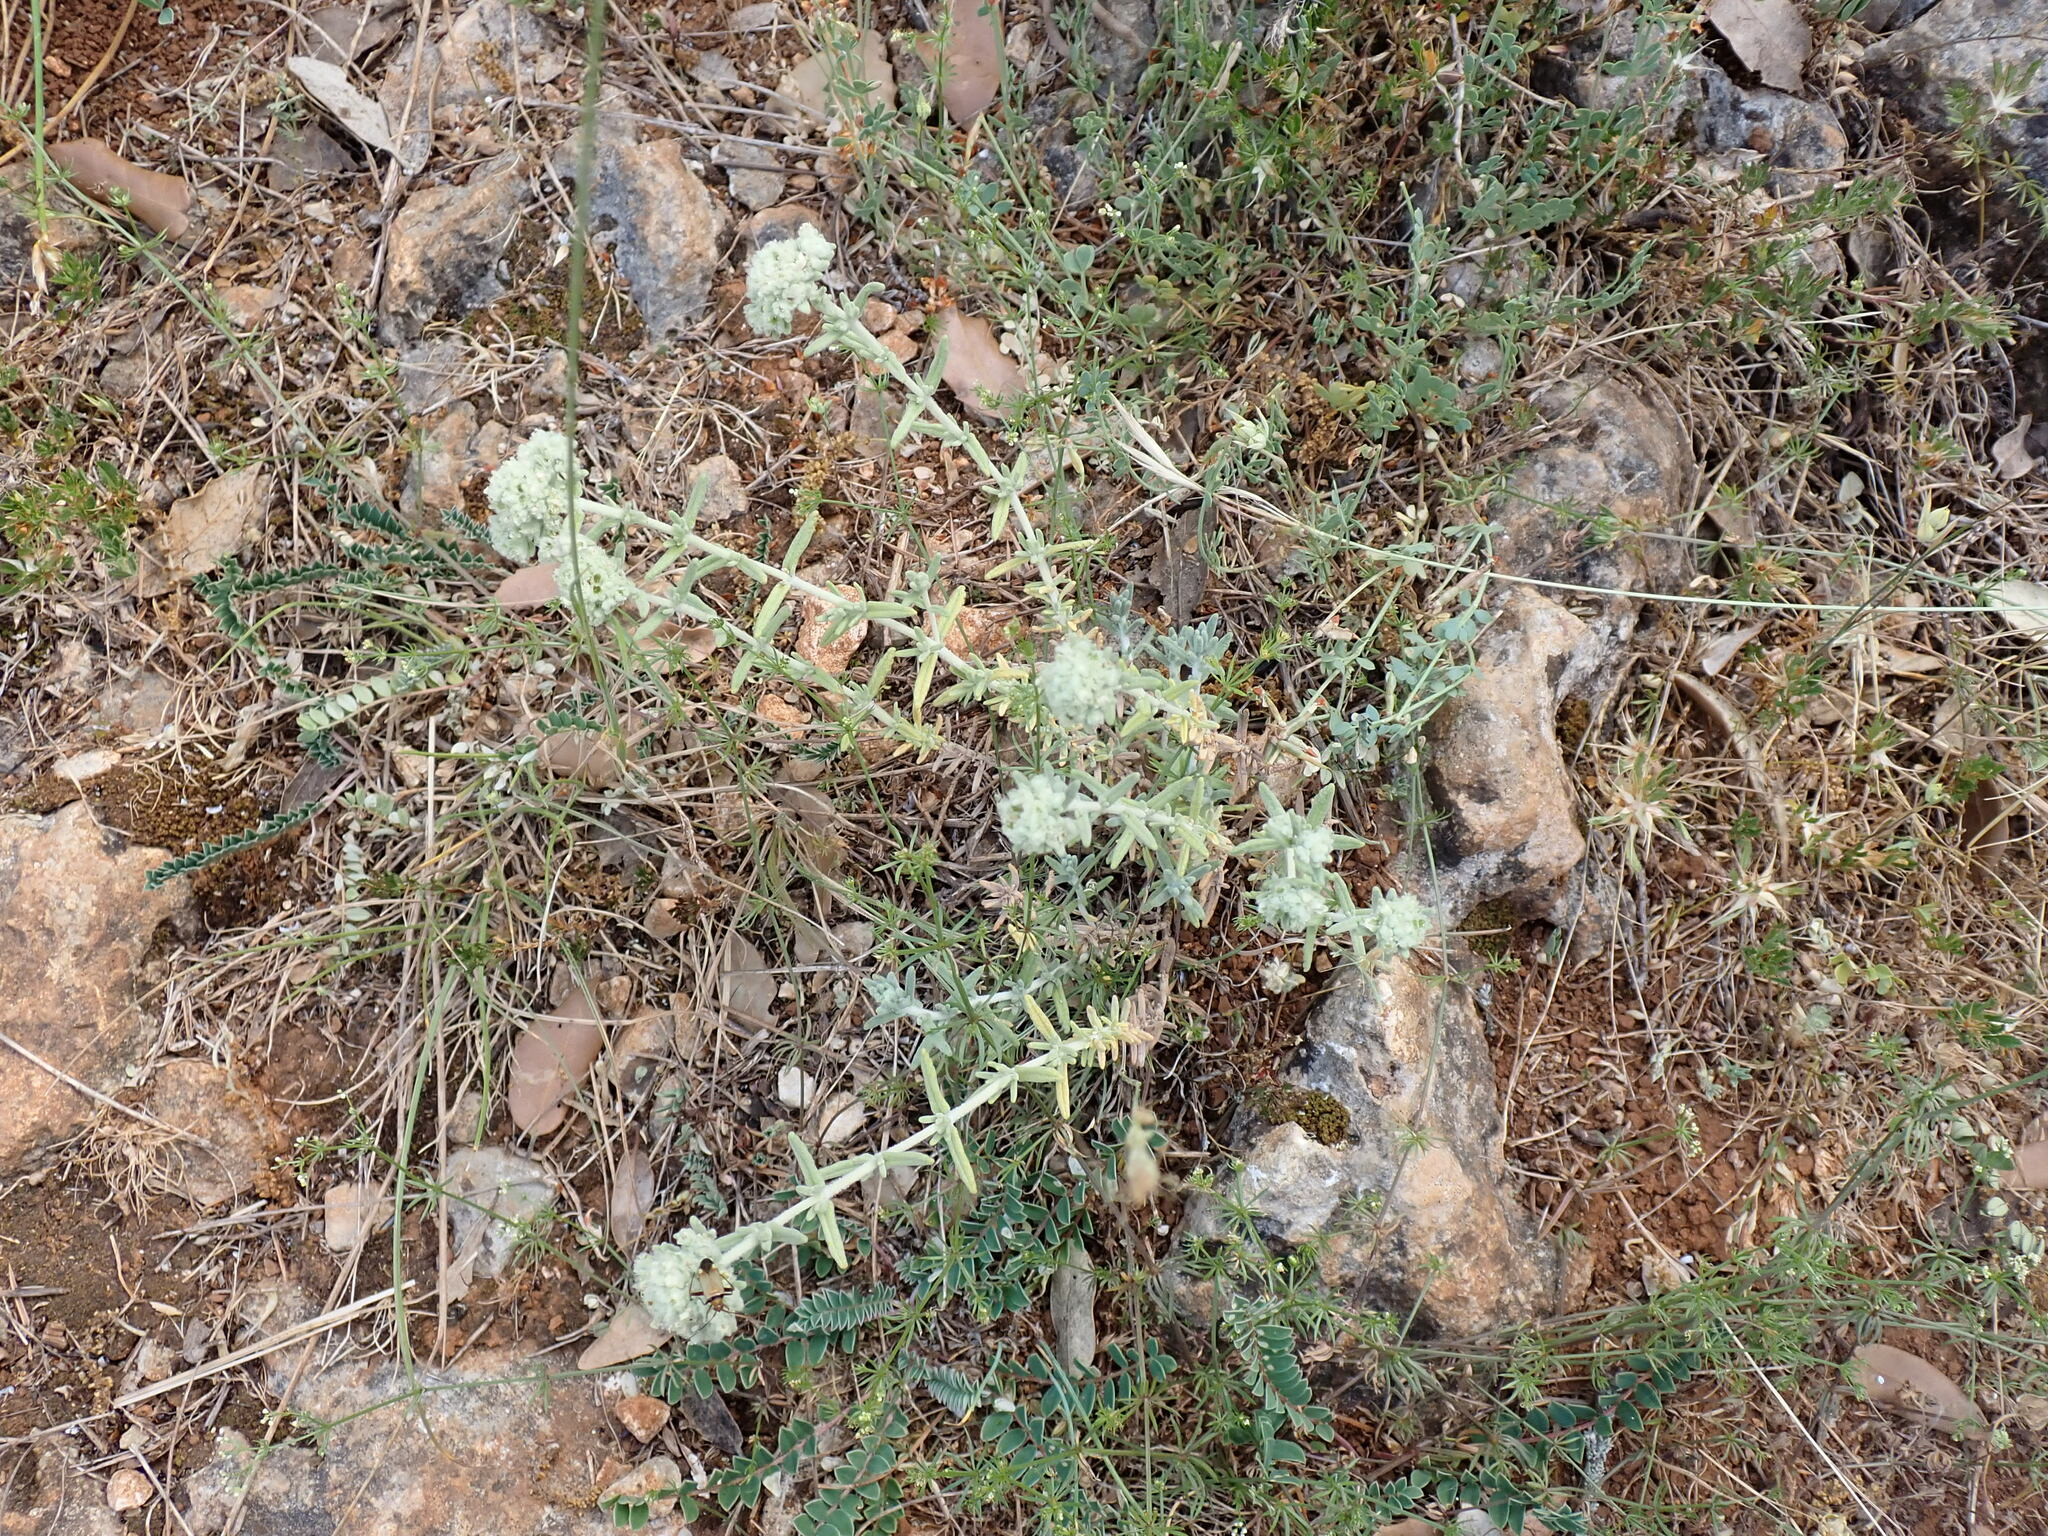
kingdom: Plantae
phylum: Tracheophyta
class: Magnoliopsida
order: Lamiales
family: Lamiaceae
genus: Teucrium
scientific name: Teucrium polium
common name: Poley
